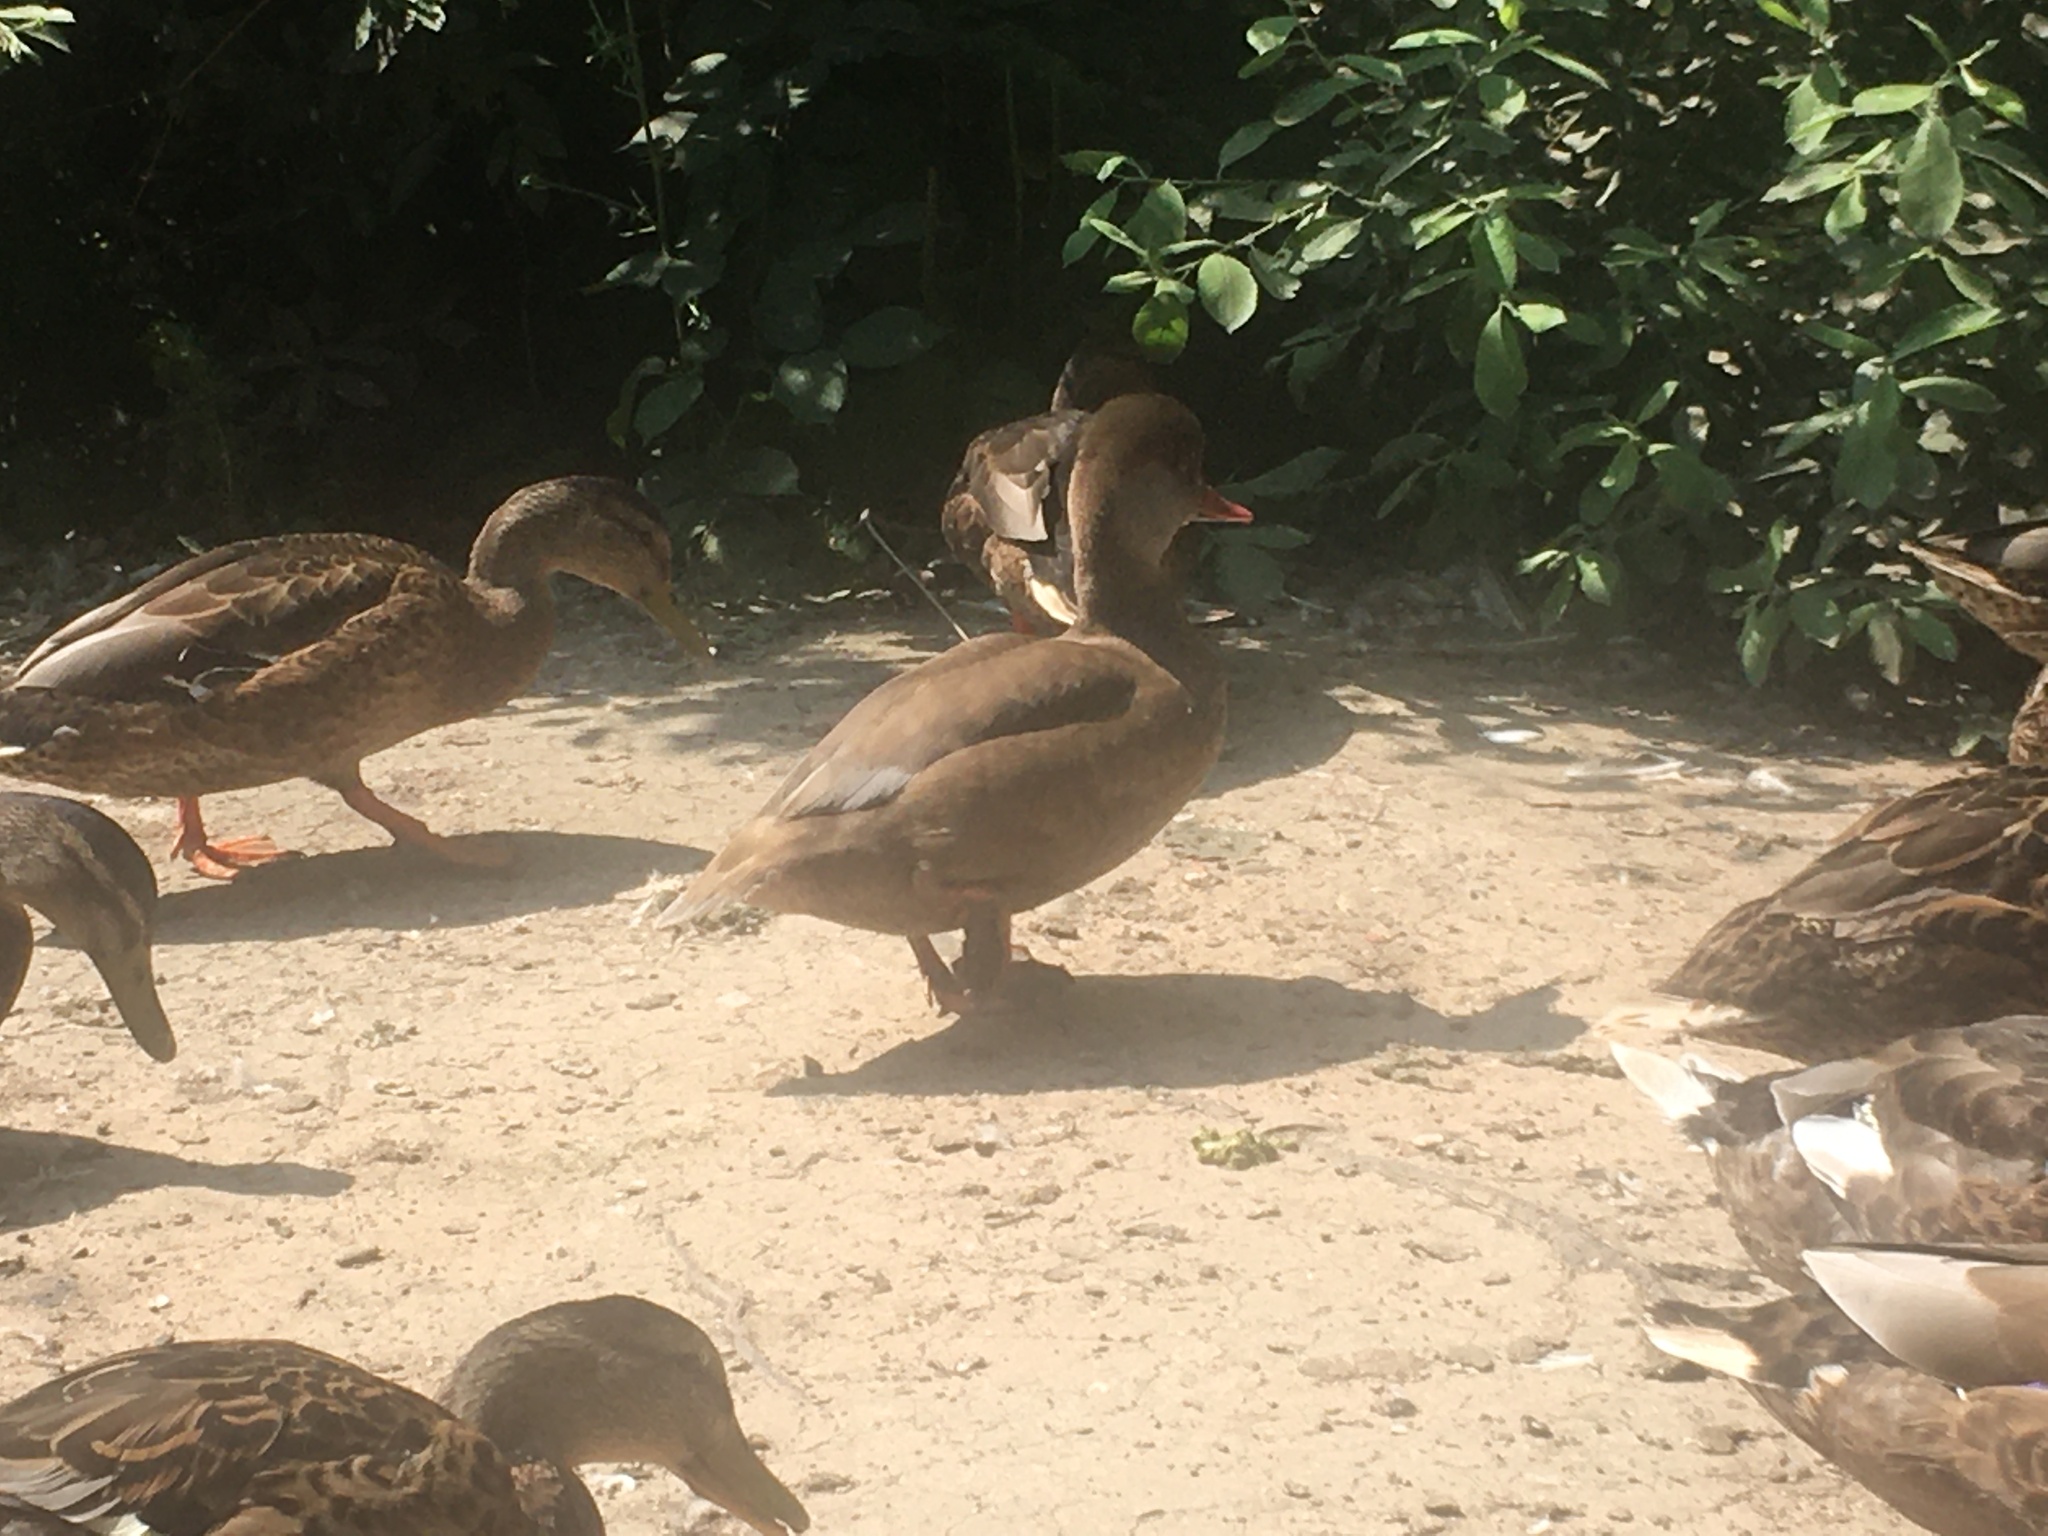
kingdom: Animalia
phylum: Chordata
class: Aves
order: Anseriformes
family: Anatidae
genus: Netta
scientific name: Netta rufina
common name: Red-crested pochard
